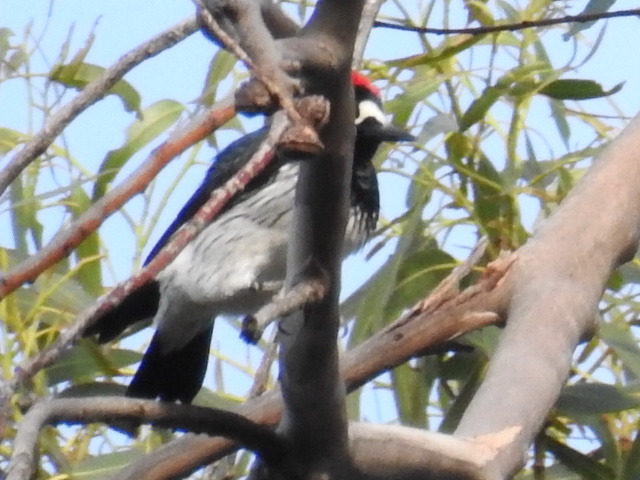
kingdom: Animalia
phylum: Chordata
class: Aves
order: Piciformes
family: Picidae
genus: Melanerpes
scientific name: Melanerpes formicivorus
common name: Acorn woodpecker
